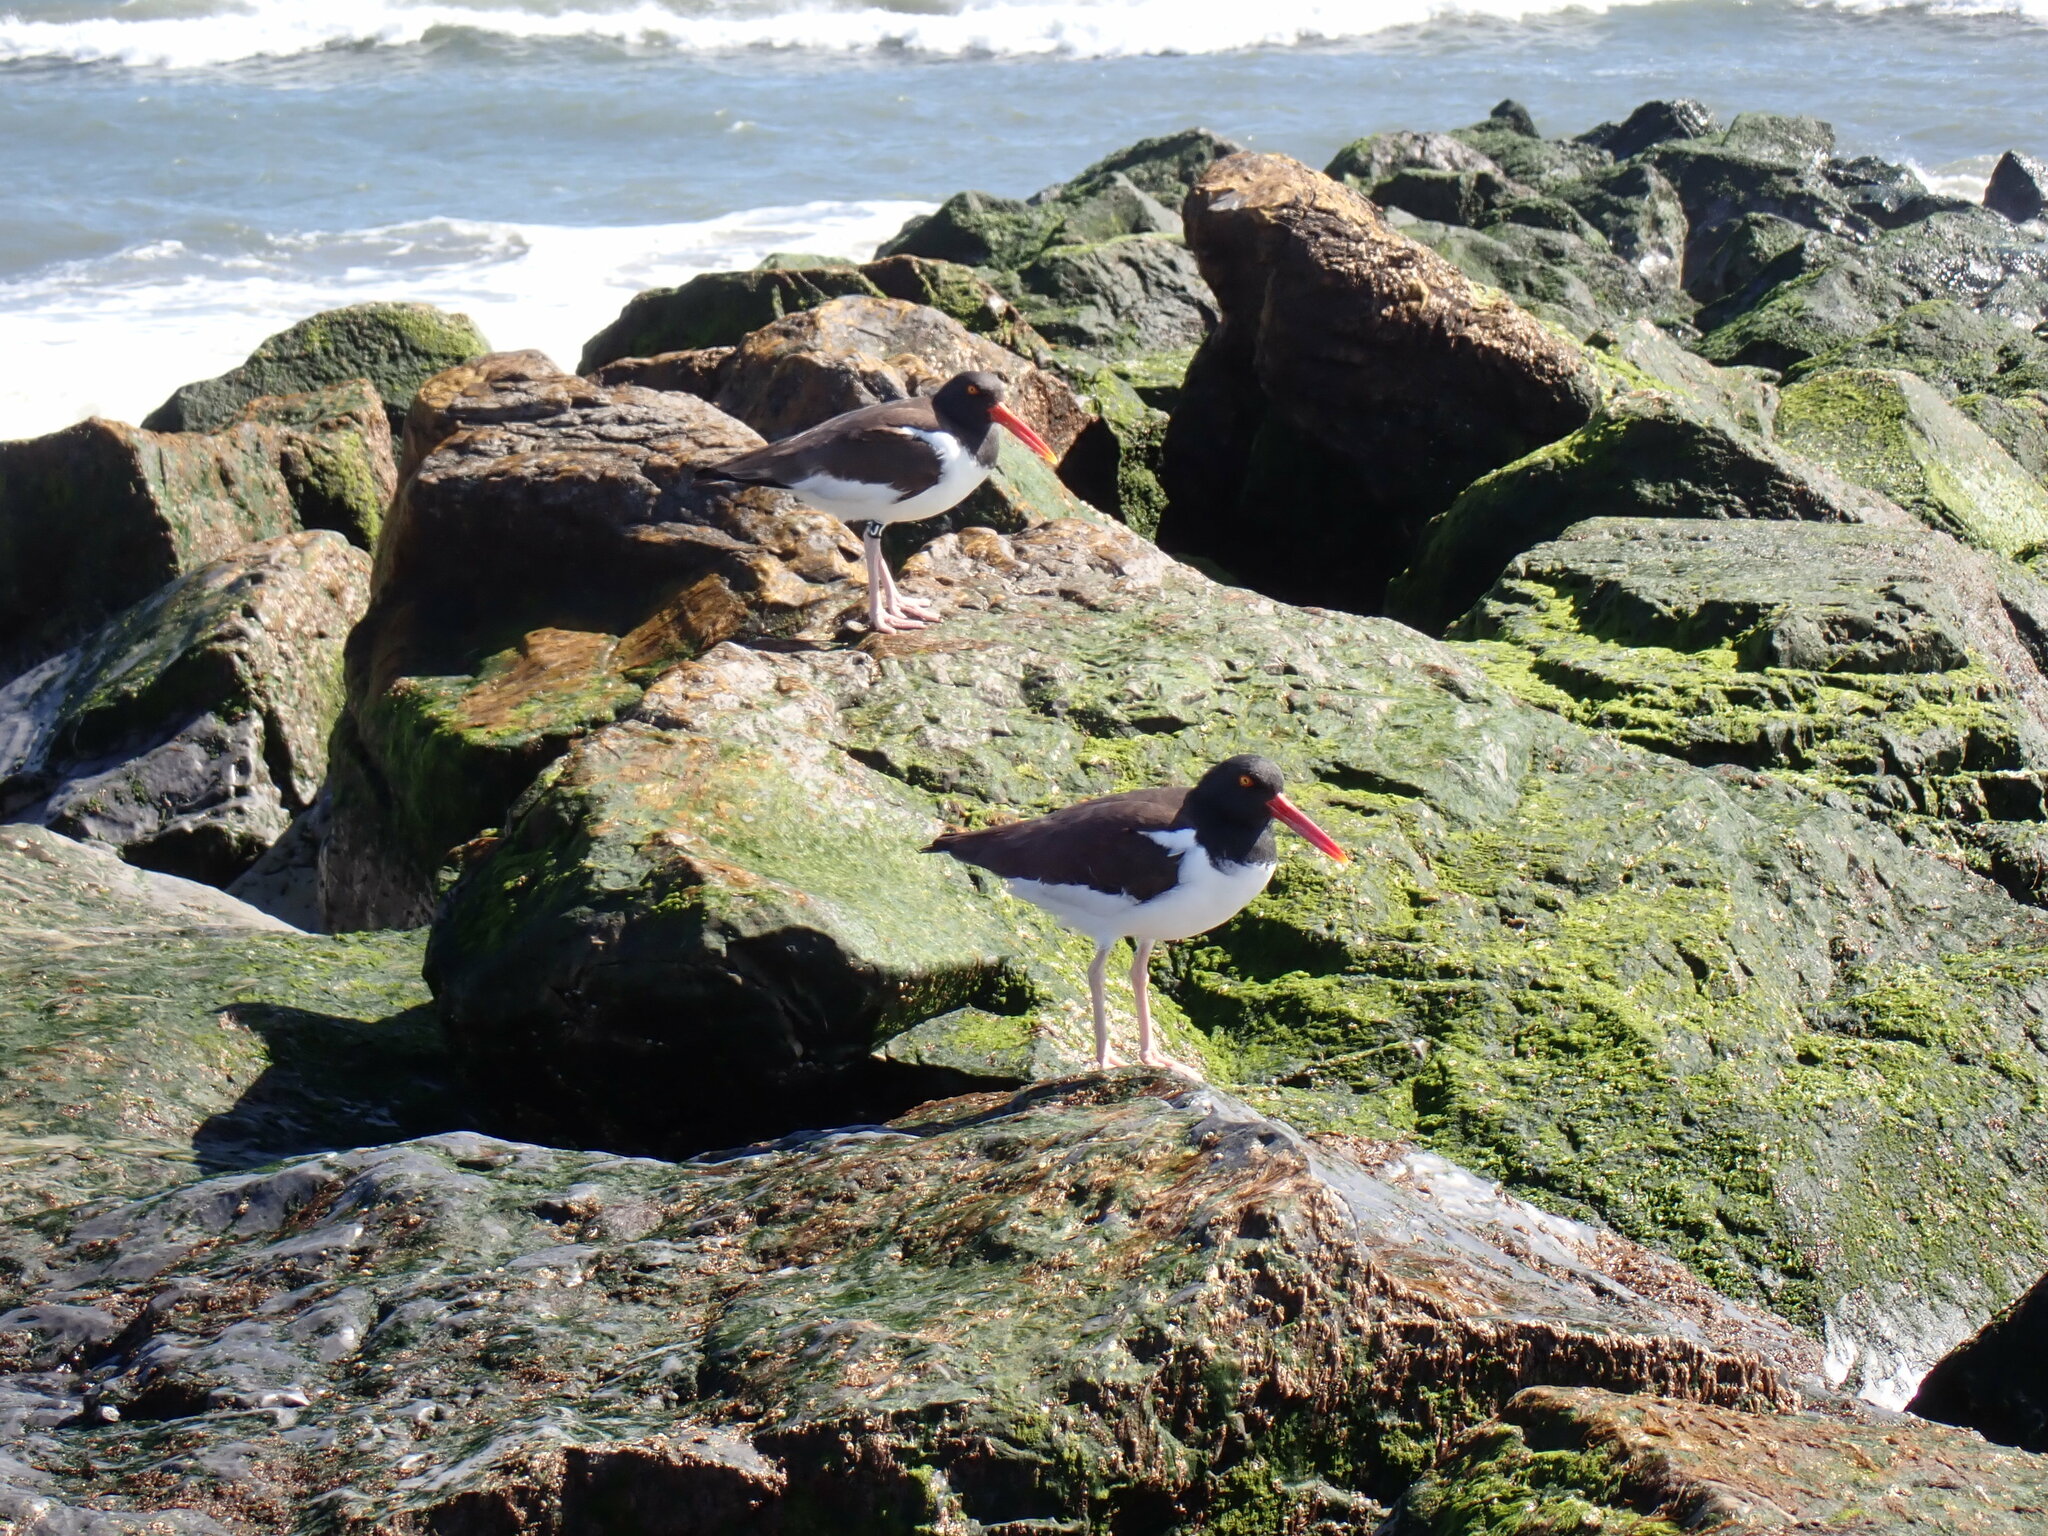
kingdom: Animalia
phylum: Chordata
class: Aves
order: Charadriiformes
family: Haematopodidae
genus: Haematopus
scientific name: Haematopus palliatus
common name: American oystercatcher
